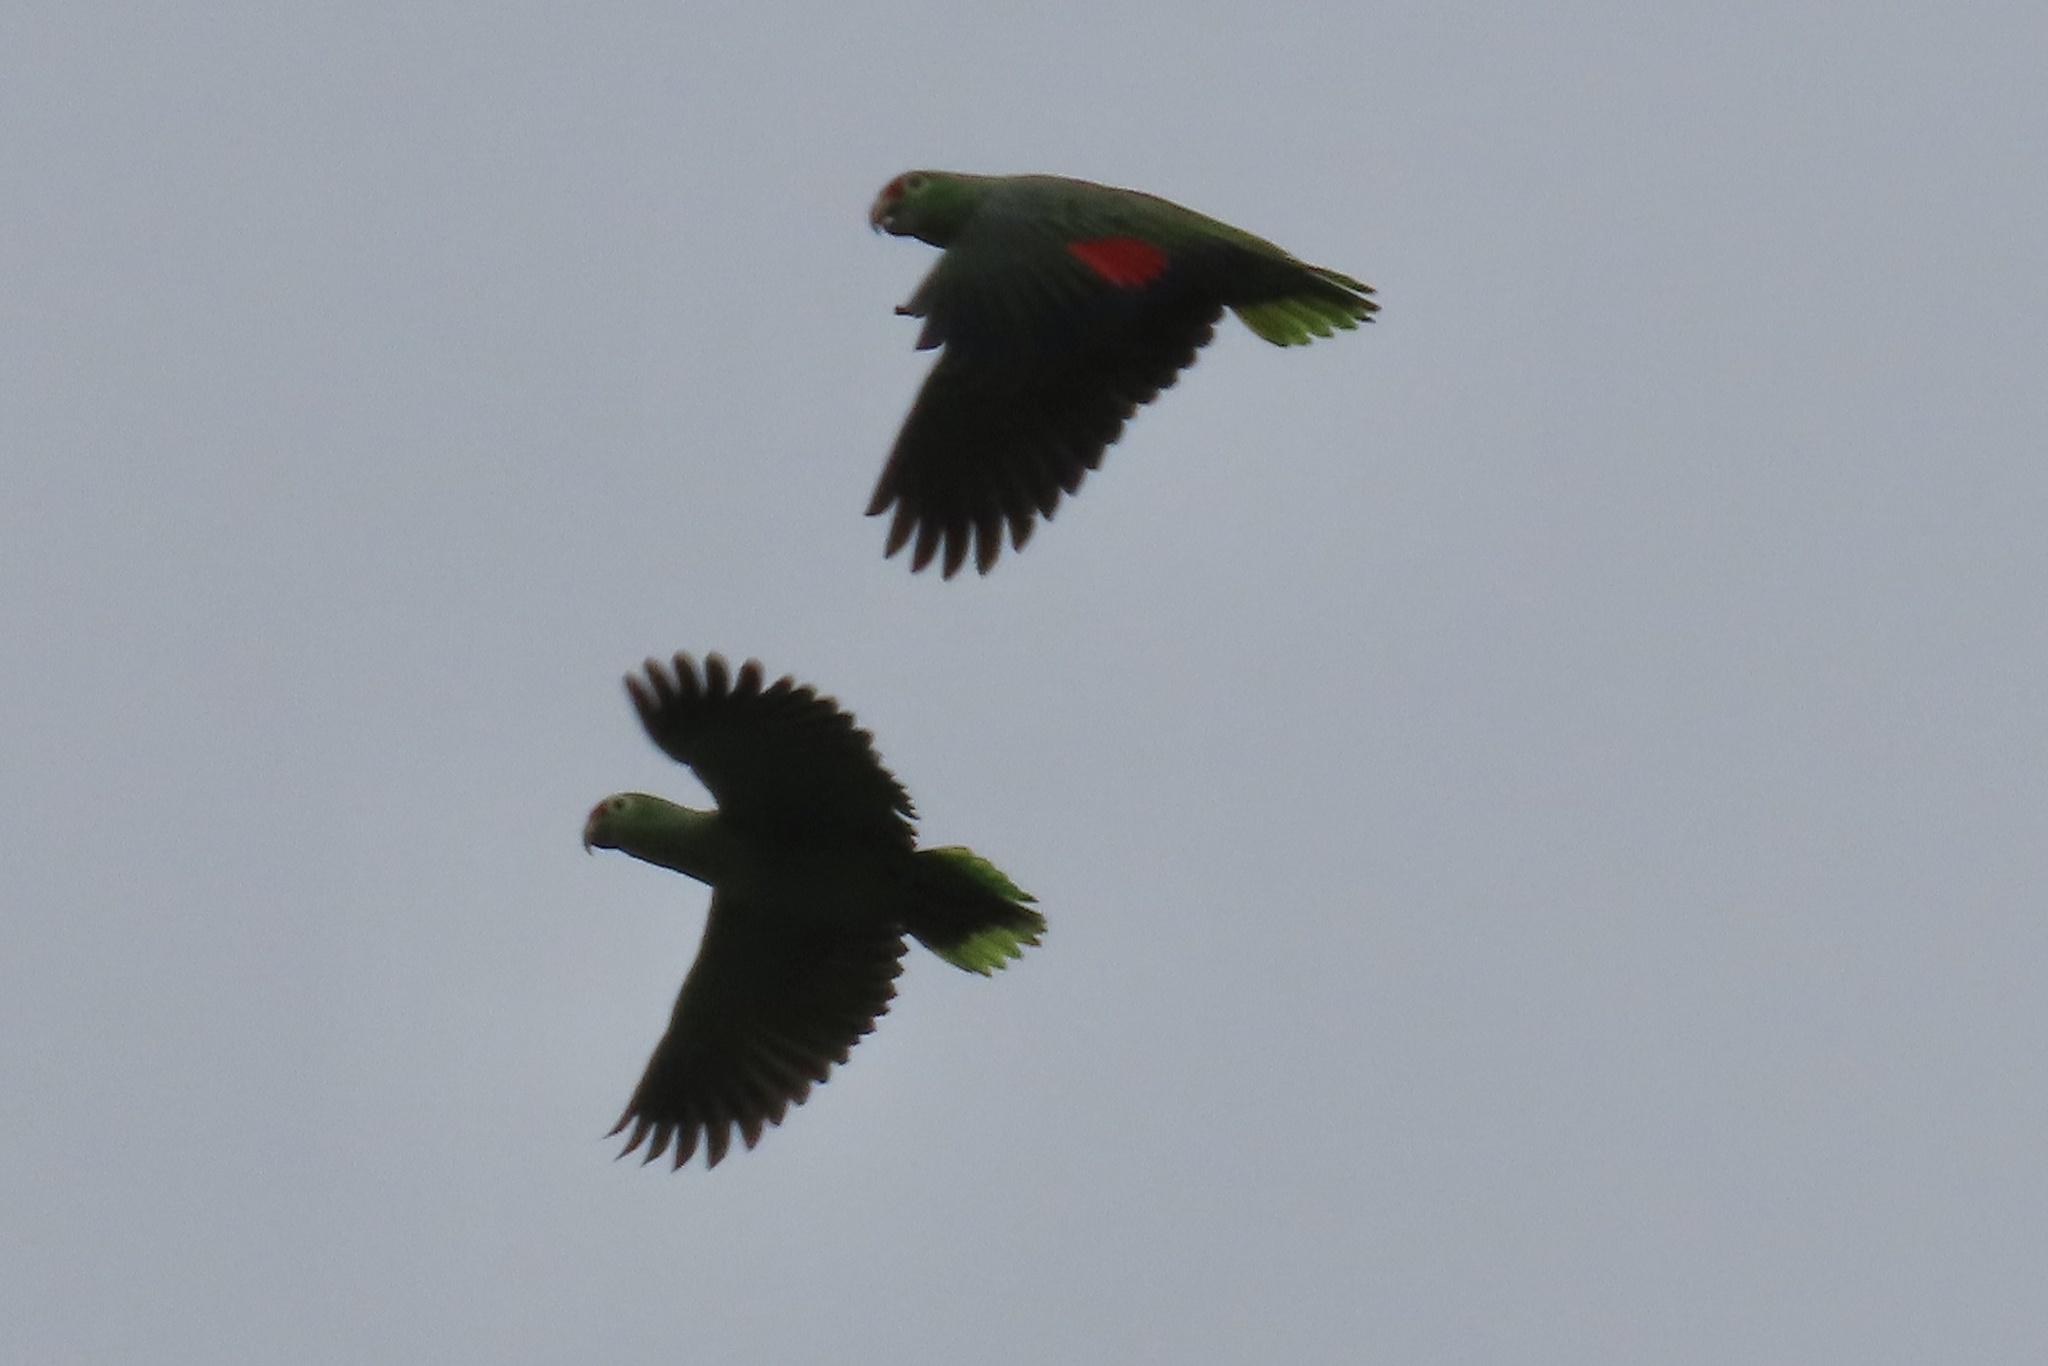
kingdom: Animalia
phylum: Chordata
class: Aves
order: Psittaciformes
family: Psittacidae
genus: Amazona
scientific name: Amazona autumnalis
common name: Red-lored amazon
